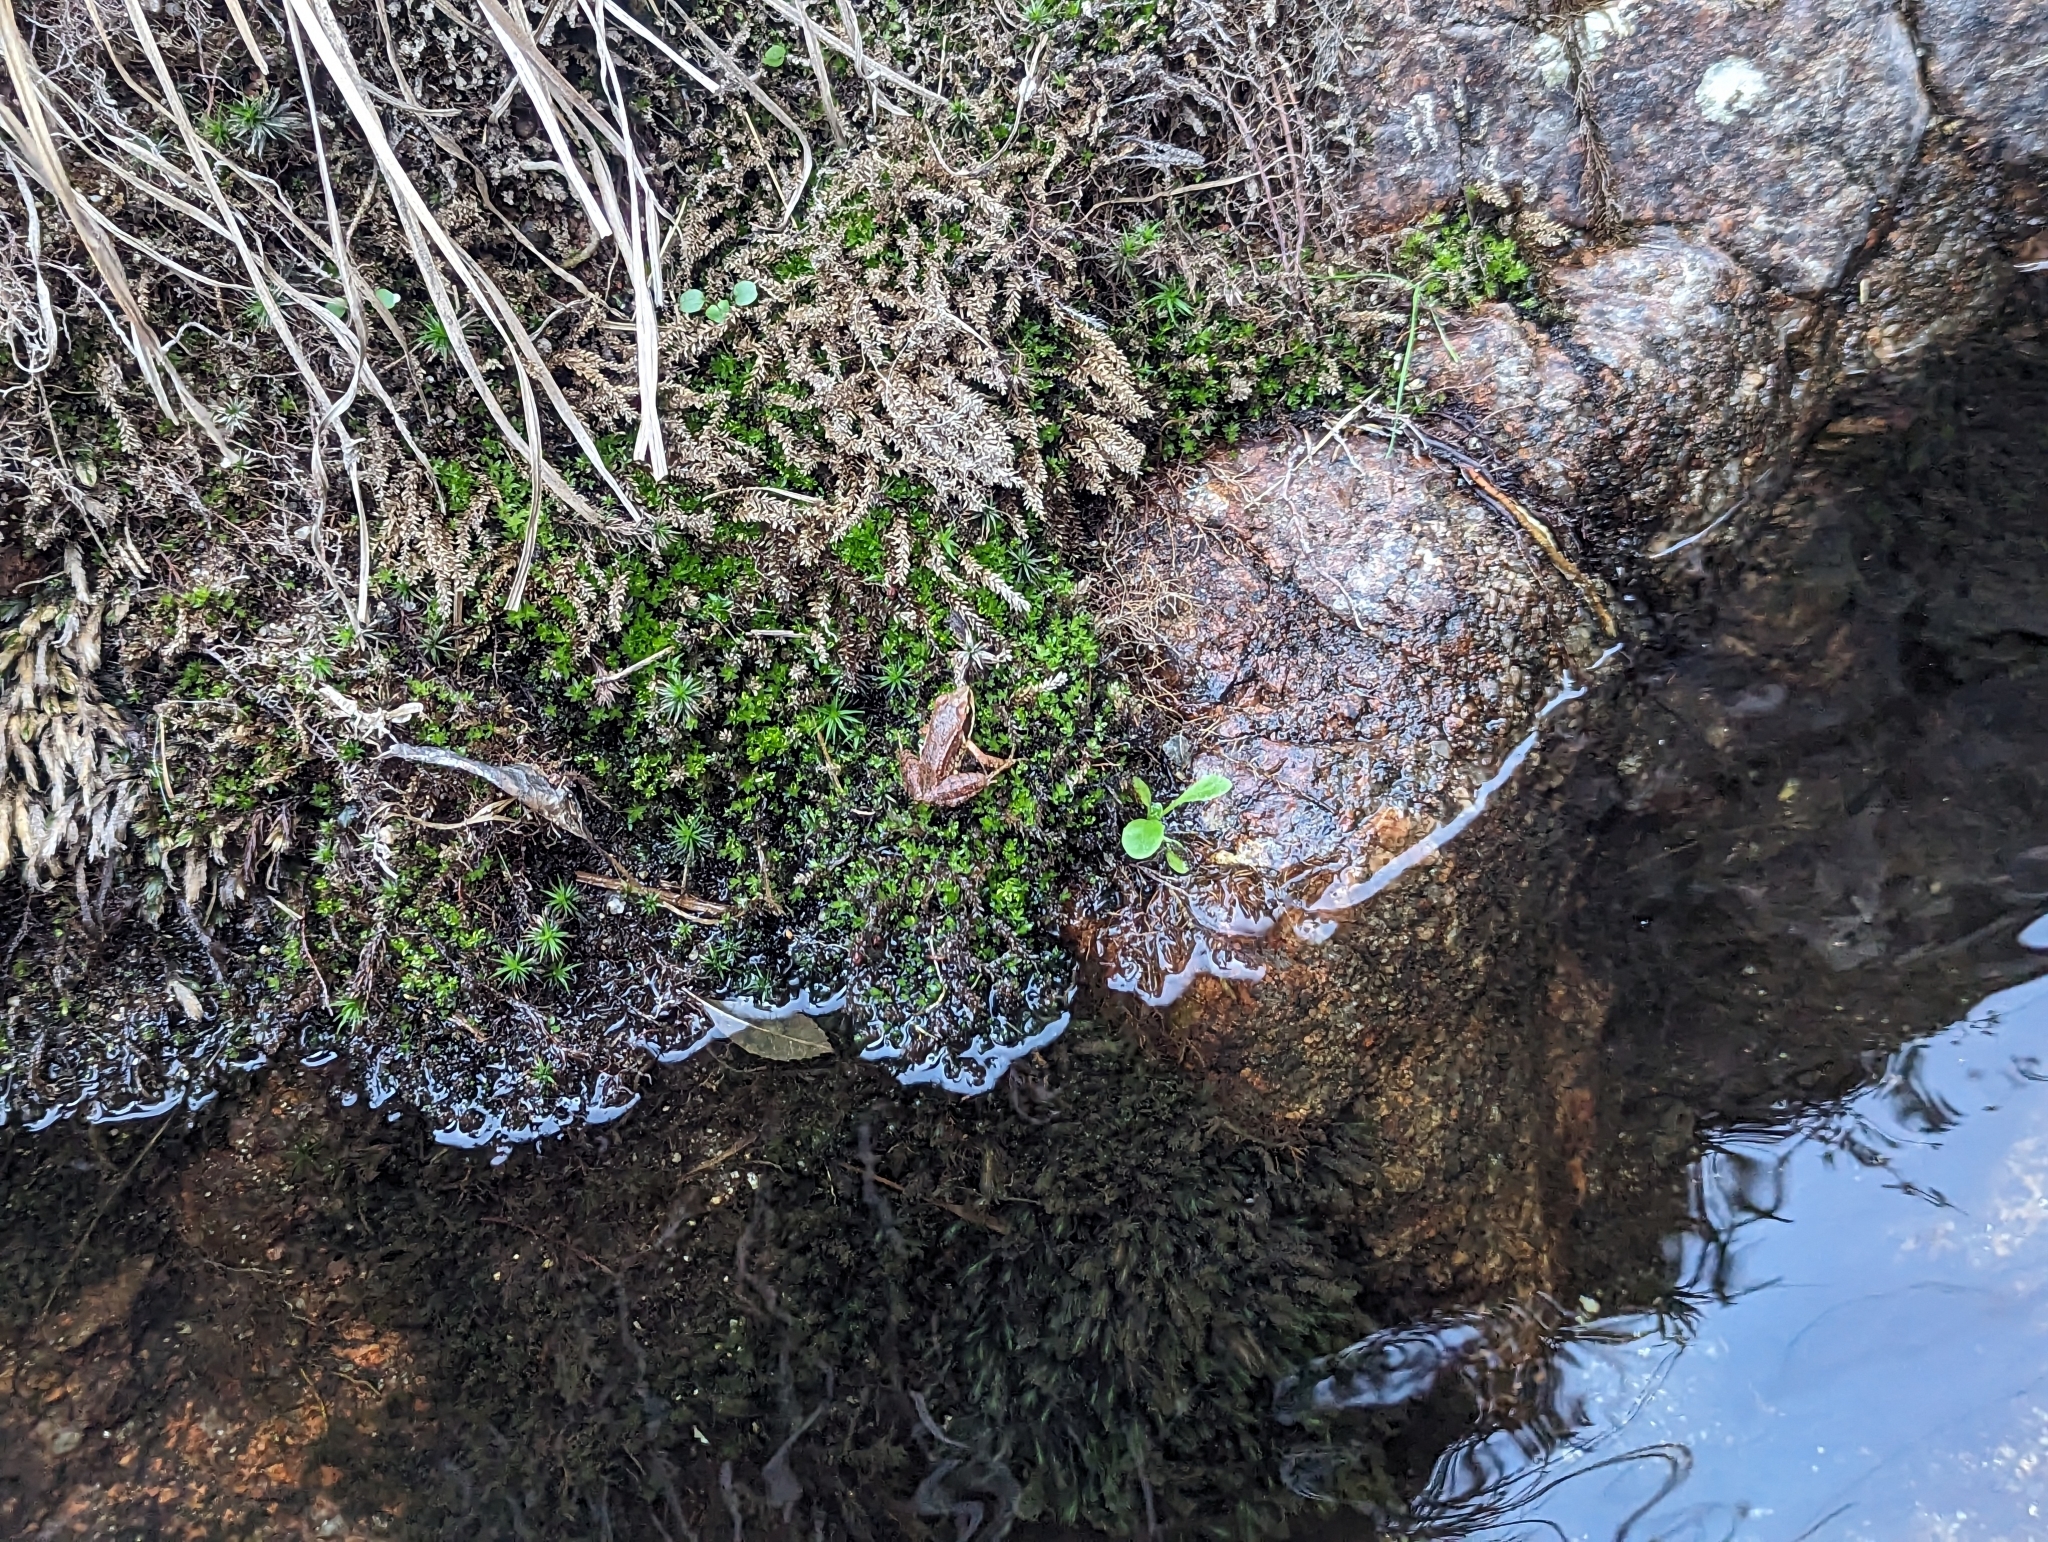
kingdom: Animalia
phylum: Chordata
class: Amphibia
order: Anura
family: Ranidae
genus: Rana
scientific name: Rana iberica
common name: Iberian frog
